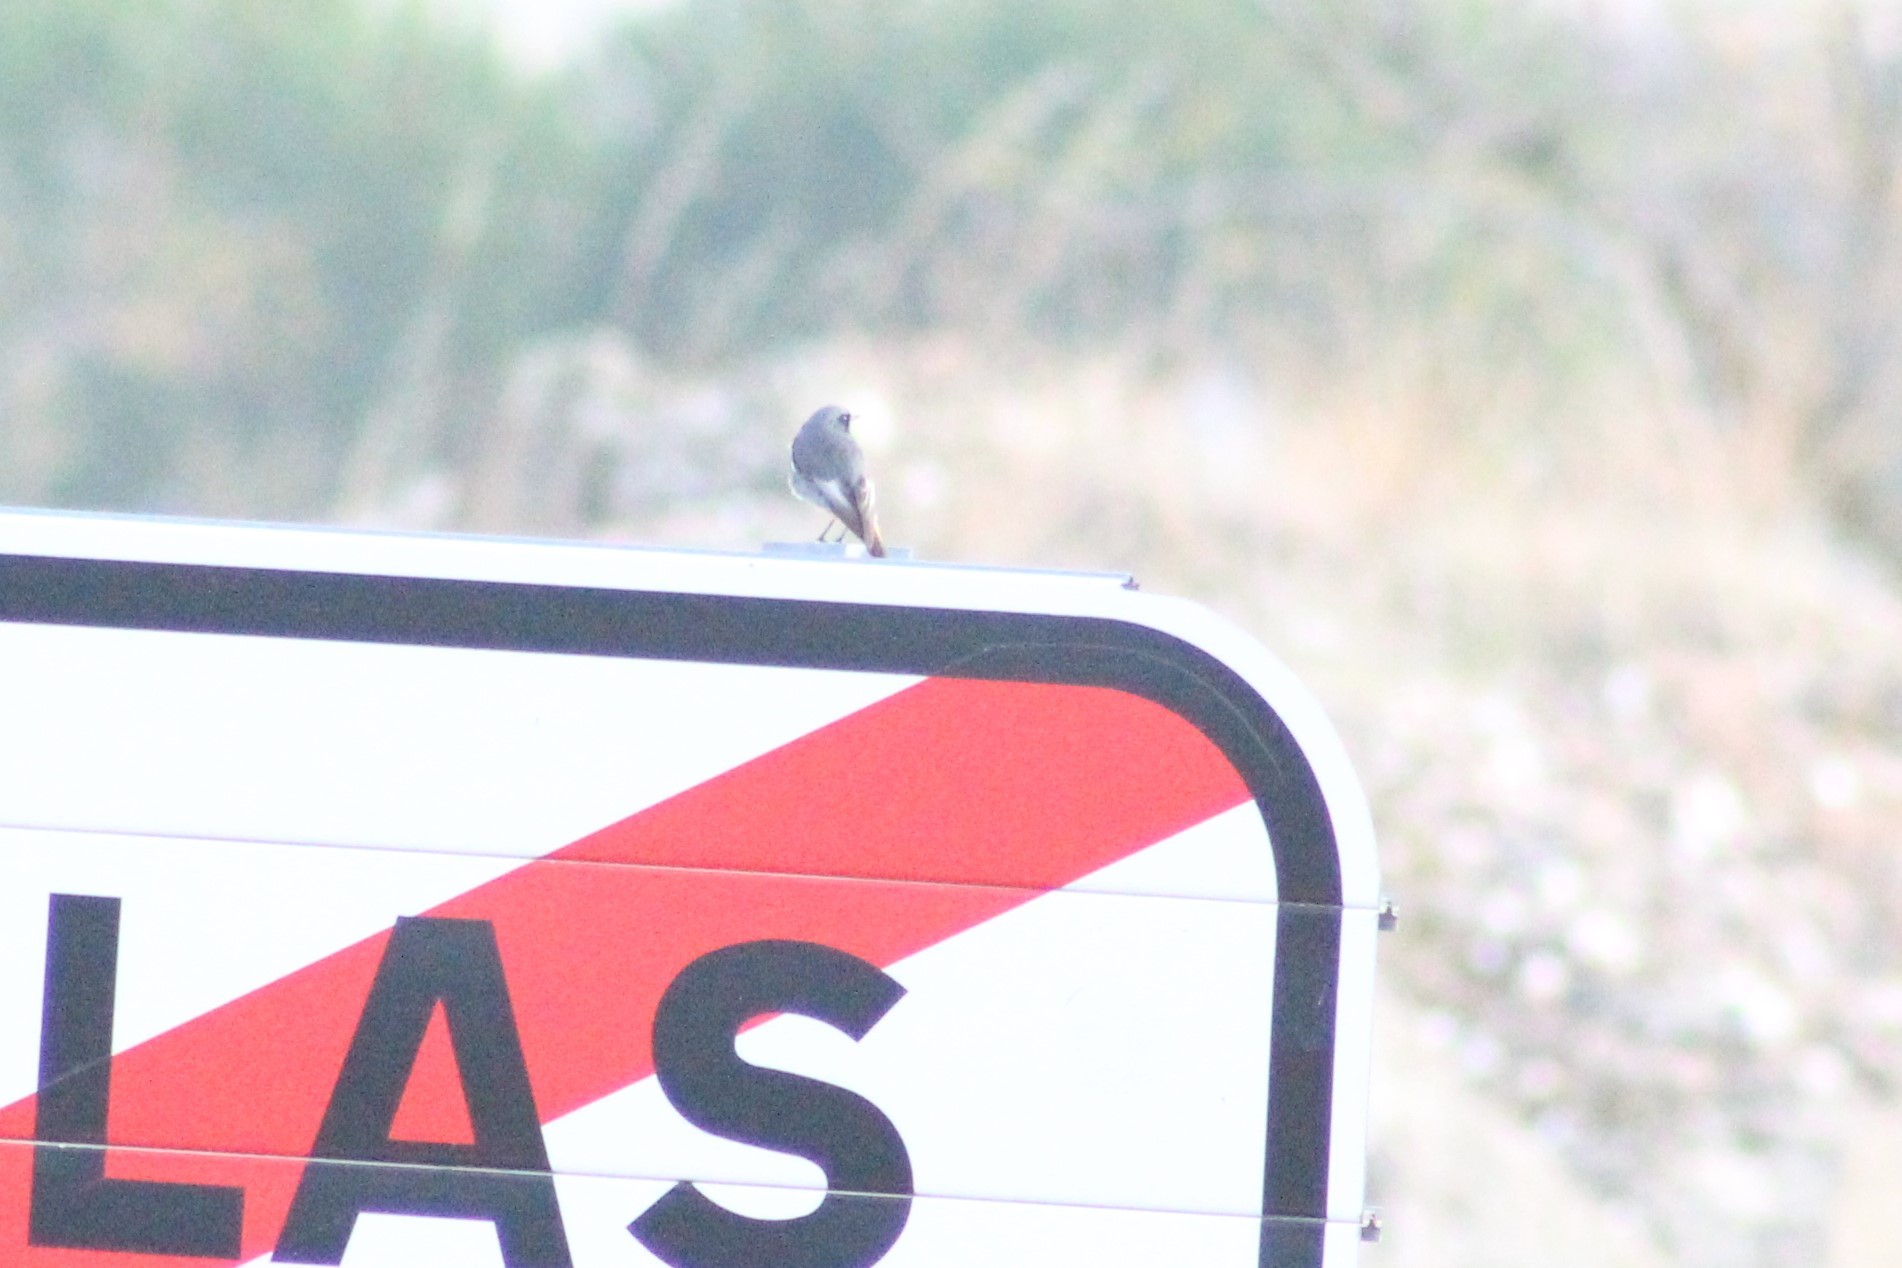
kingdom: Animalia
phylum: Chordata
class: Aves
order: Passeriformes
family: Muscicapidae
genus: Phoenicurus
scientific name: Phoenicurus ochruros
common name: Black redstart
